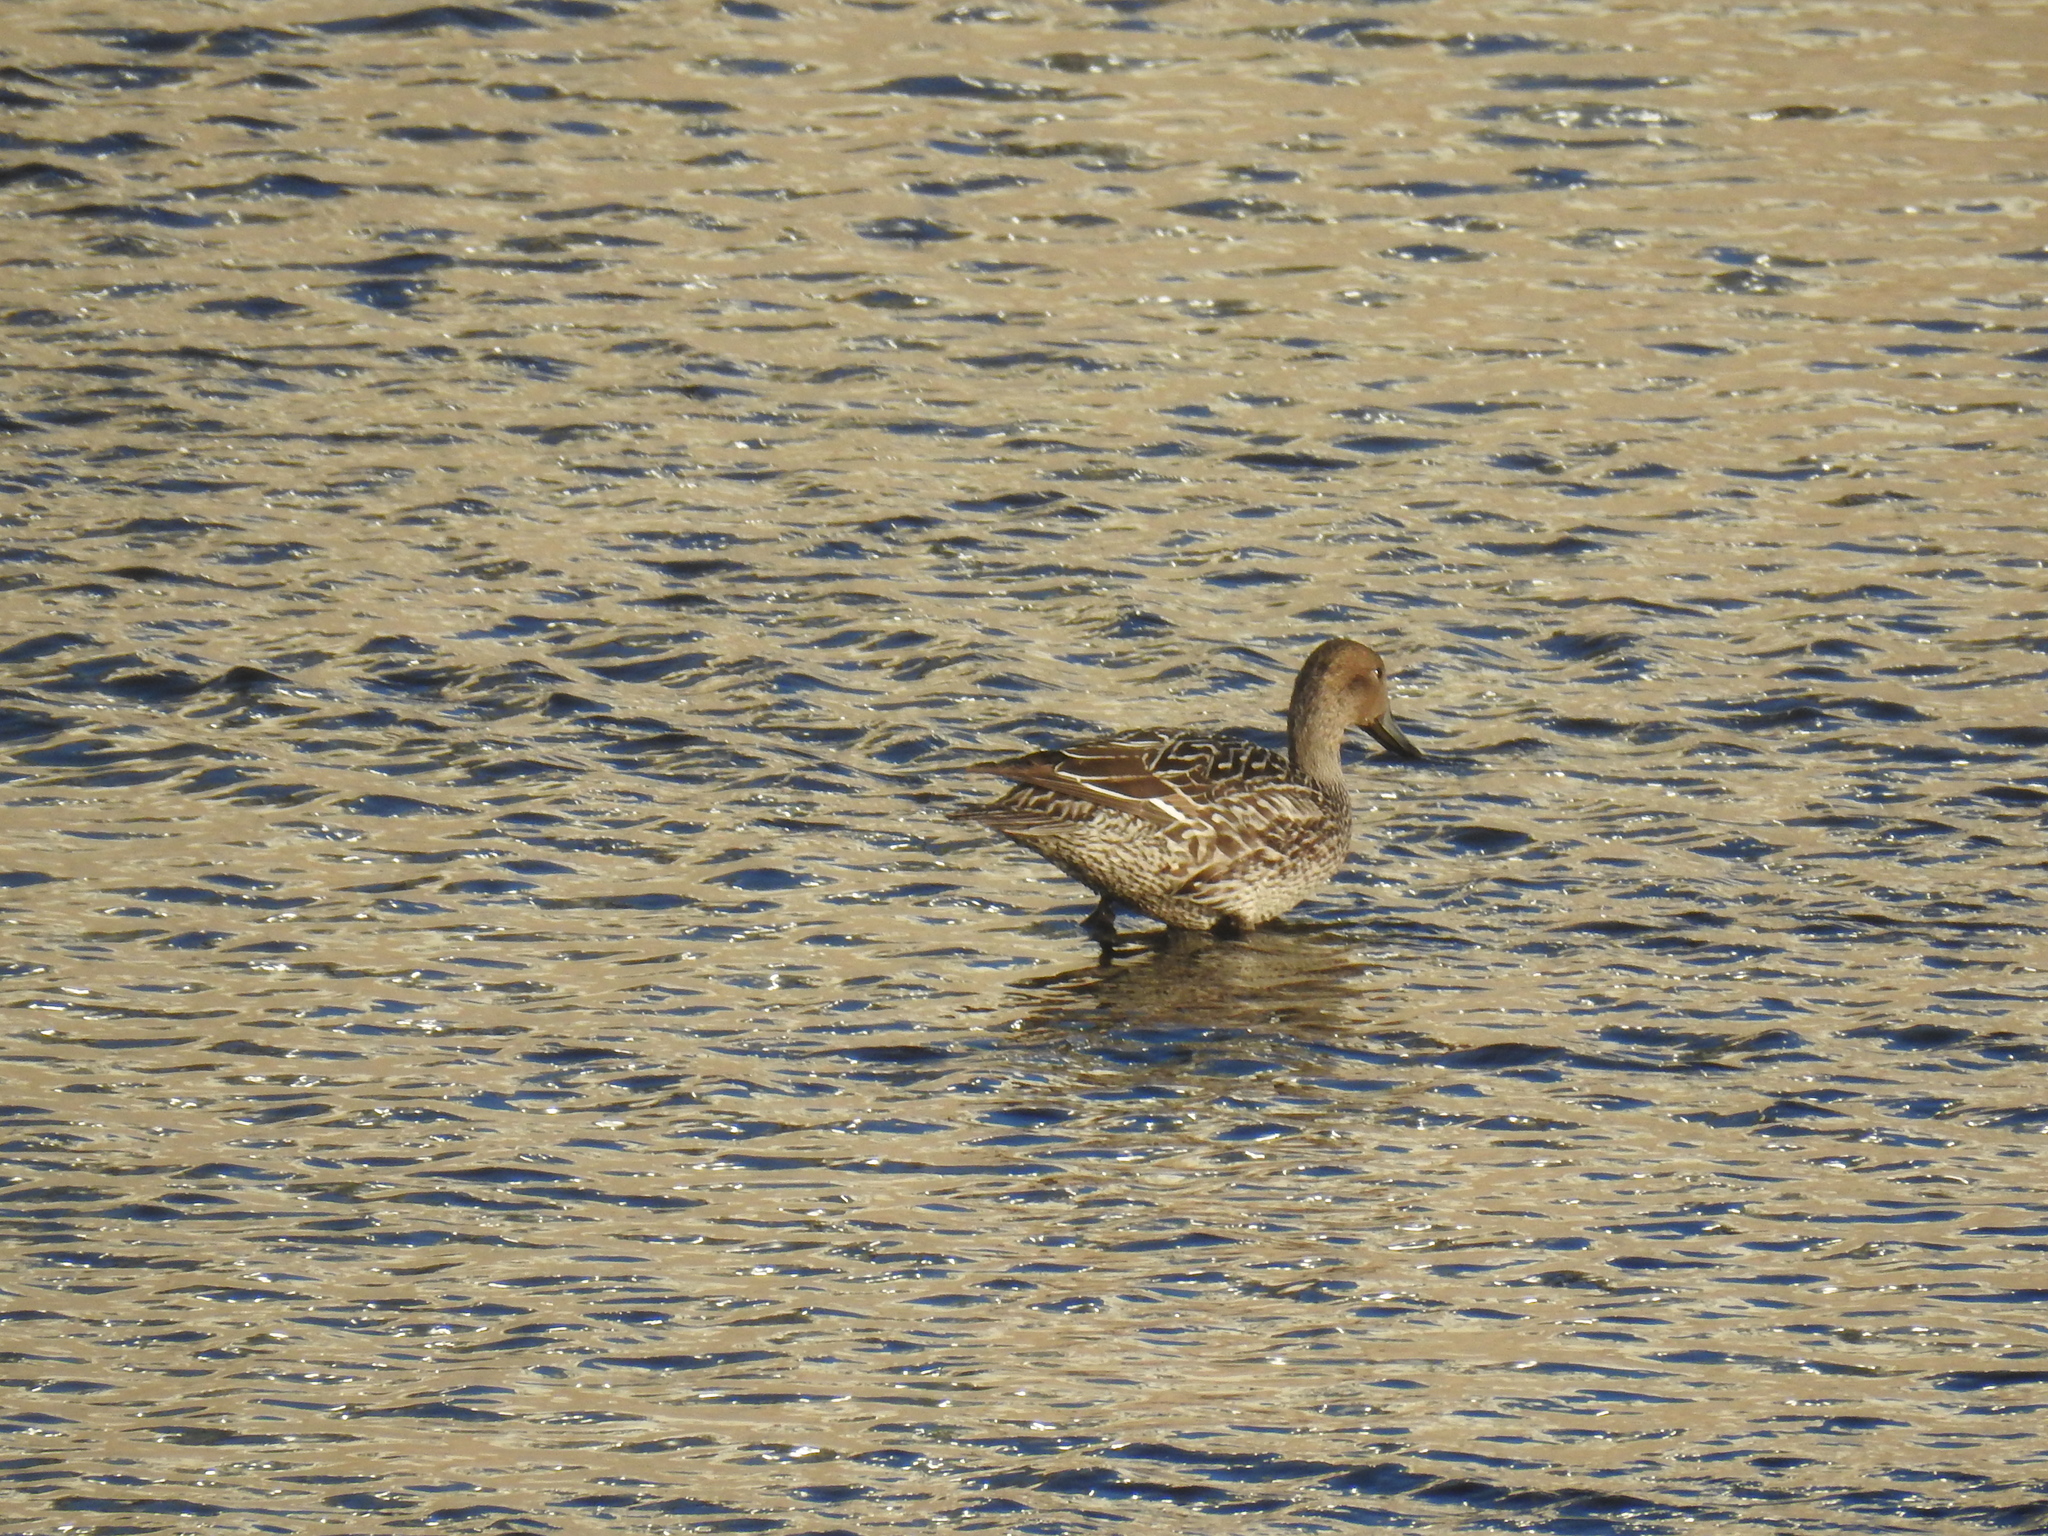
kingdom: Animalia
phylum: Chordata
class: Aves
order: Anseriformes
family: Anatidae
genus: Anas
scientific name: Anas acuta
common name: Northern pintail
